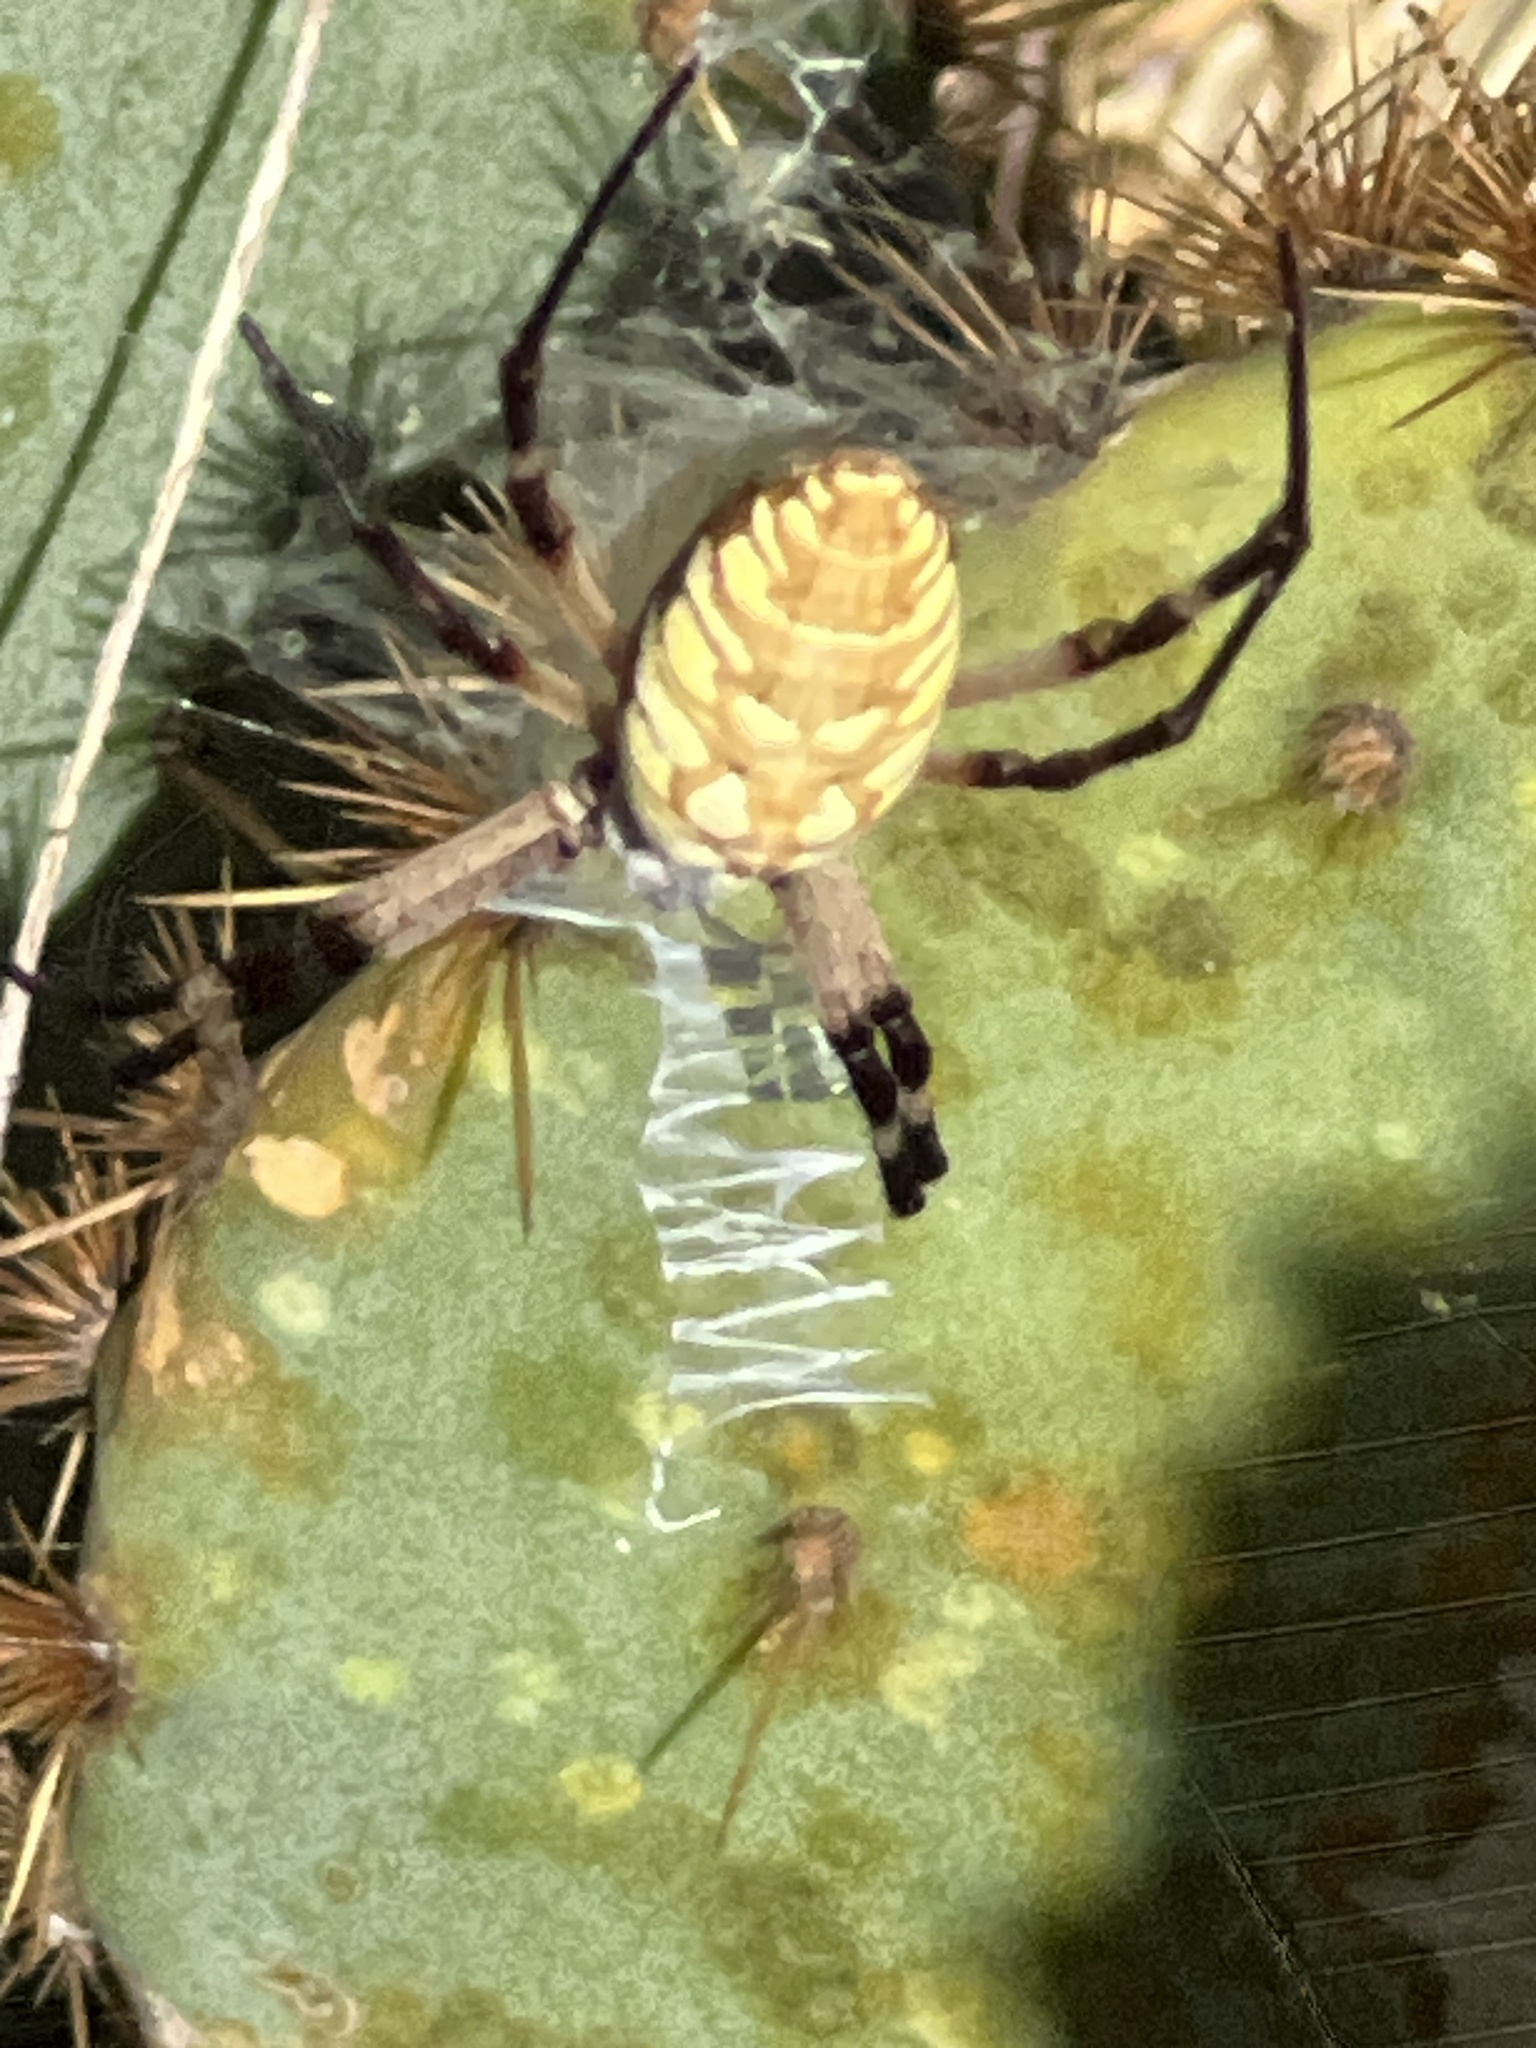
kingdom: Animalia
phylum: Arthropoda
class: Arachnida
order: Araneae
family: Araneidae
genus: Argiope
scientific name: Argiope aurantia
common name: Orb weavers
